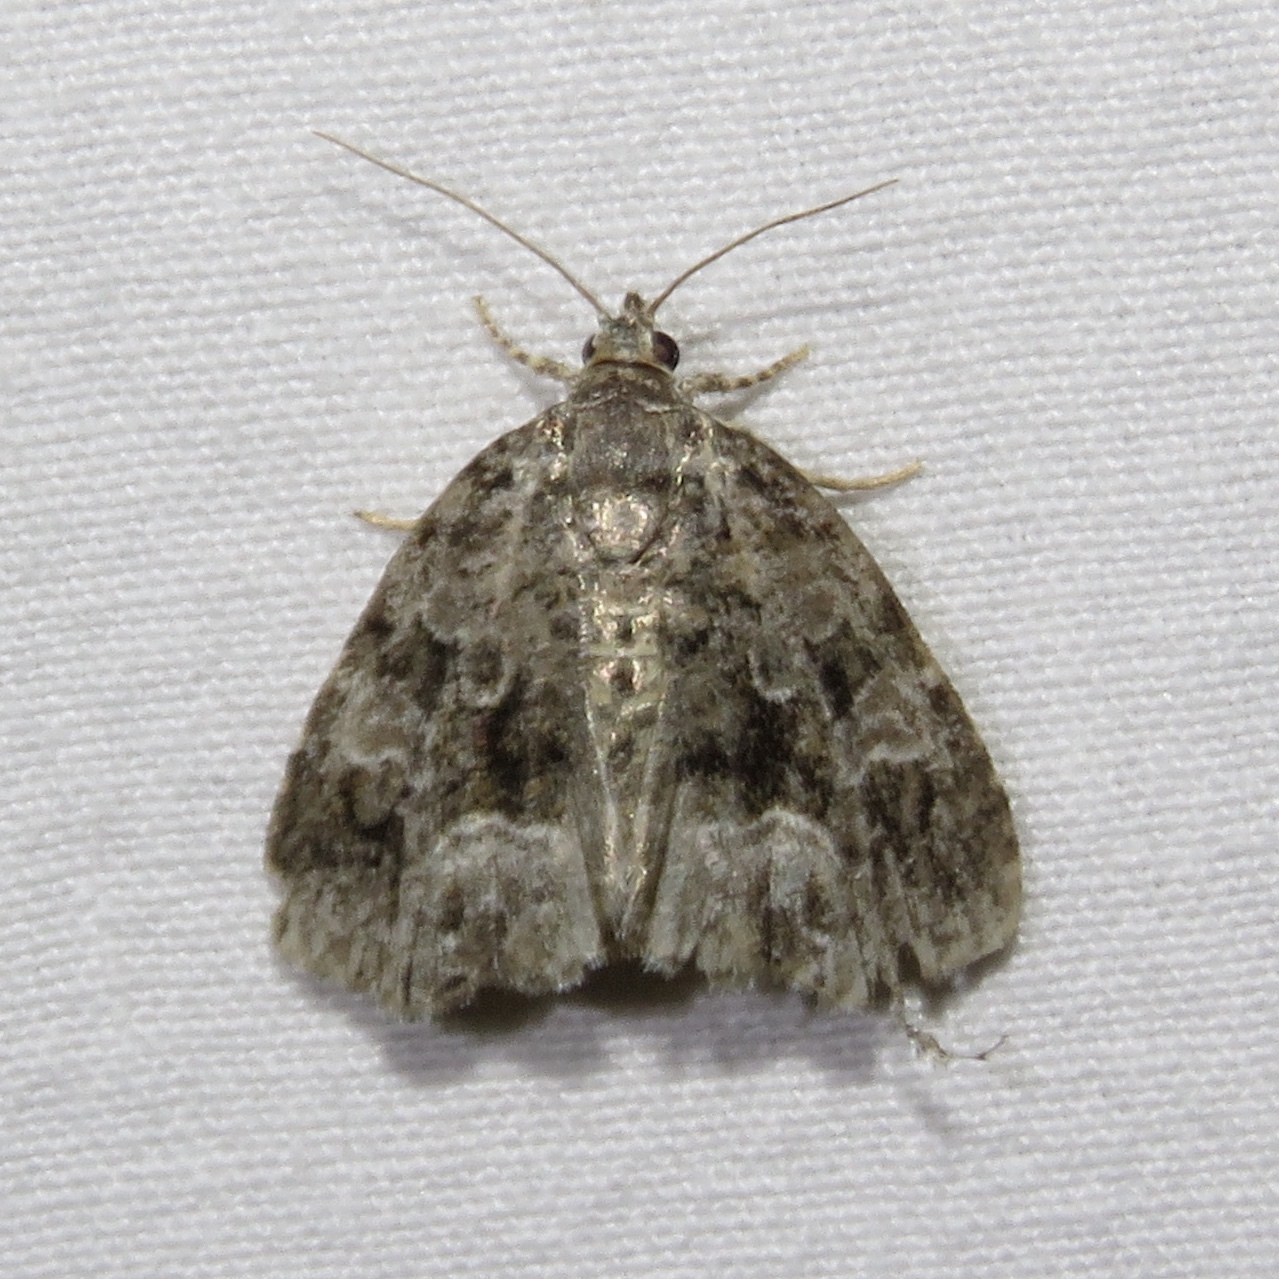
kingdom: Animalia
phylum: Arthropoda
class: Insecta
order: Lepidoptera
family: Noctuidae
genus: Protodeltote
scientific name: Protodeltote muscosula
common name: Large mossy glyph
